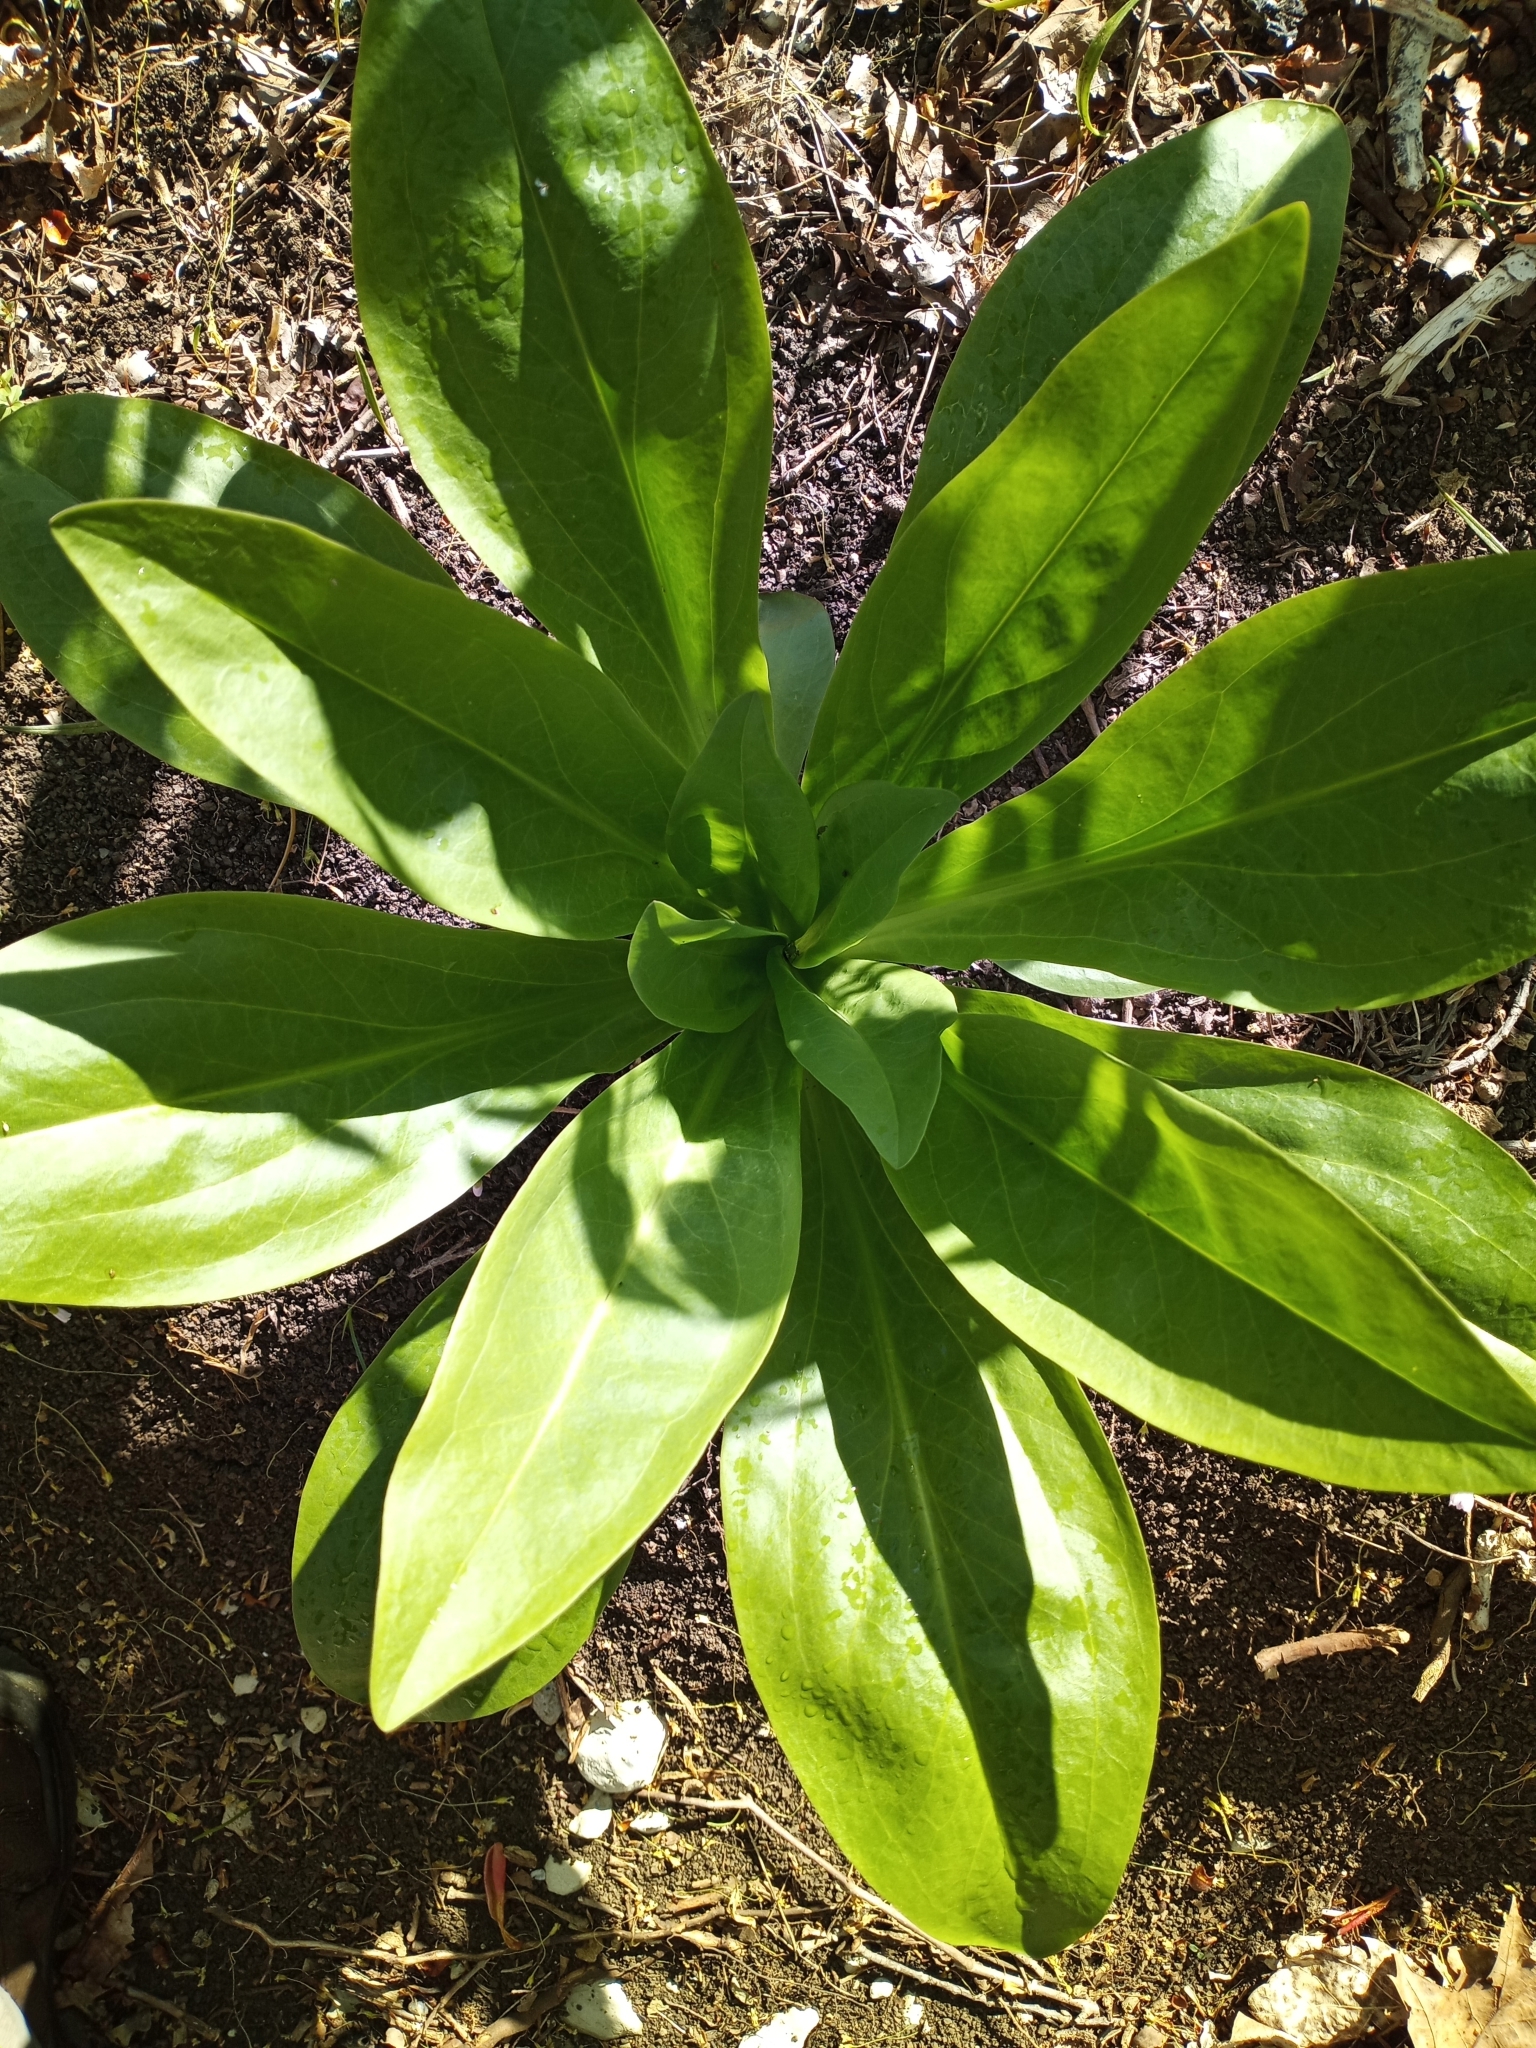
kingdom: Plantae
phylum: Tracheophyta
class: Magnoliopsida
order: Gentianales
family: Gentianaceae
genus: Frasera
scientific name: Frasera caroliniensis
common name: American columbo
